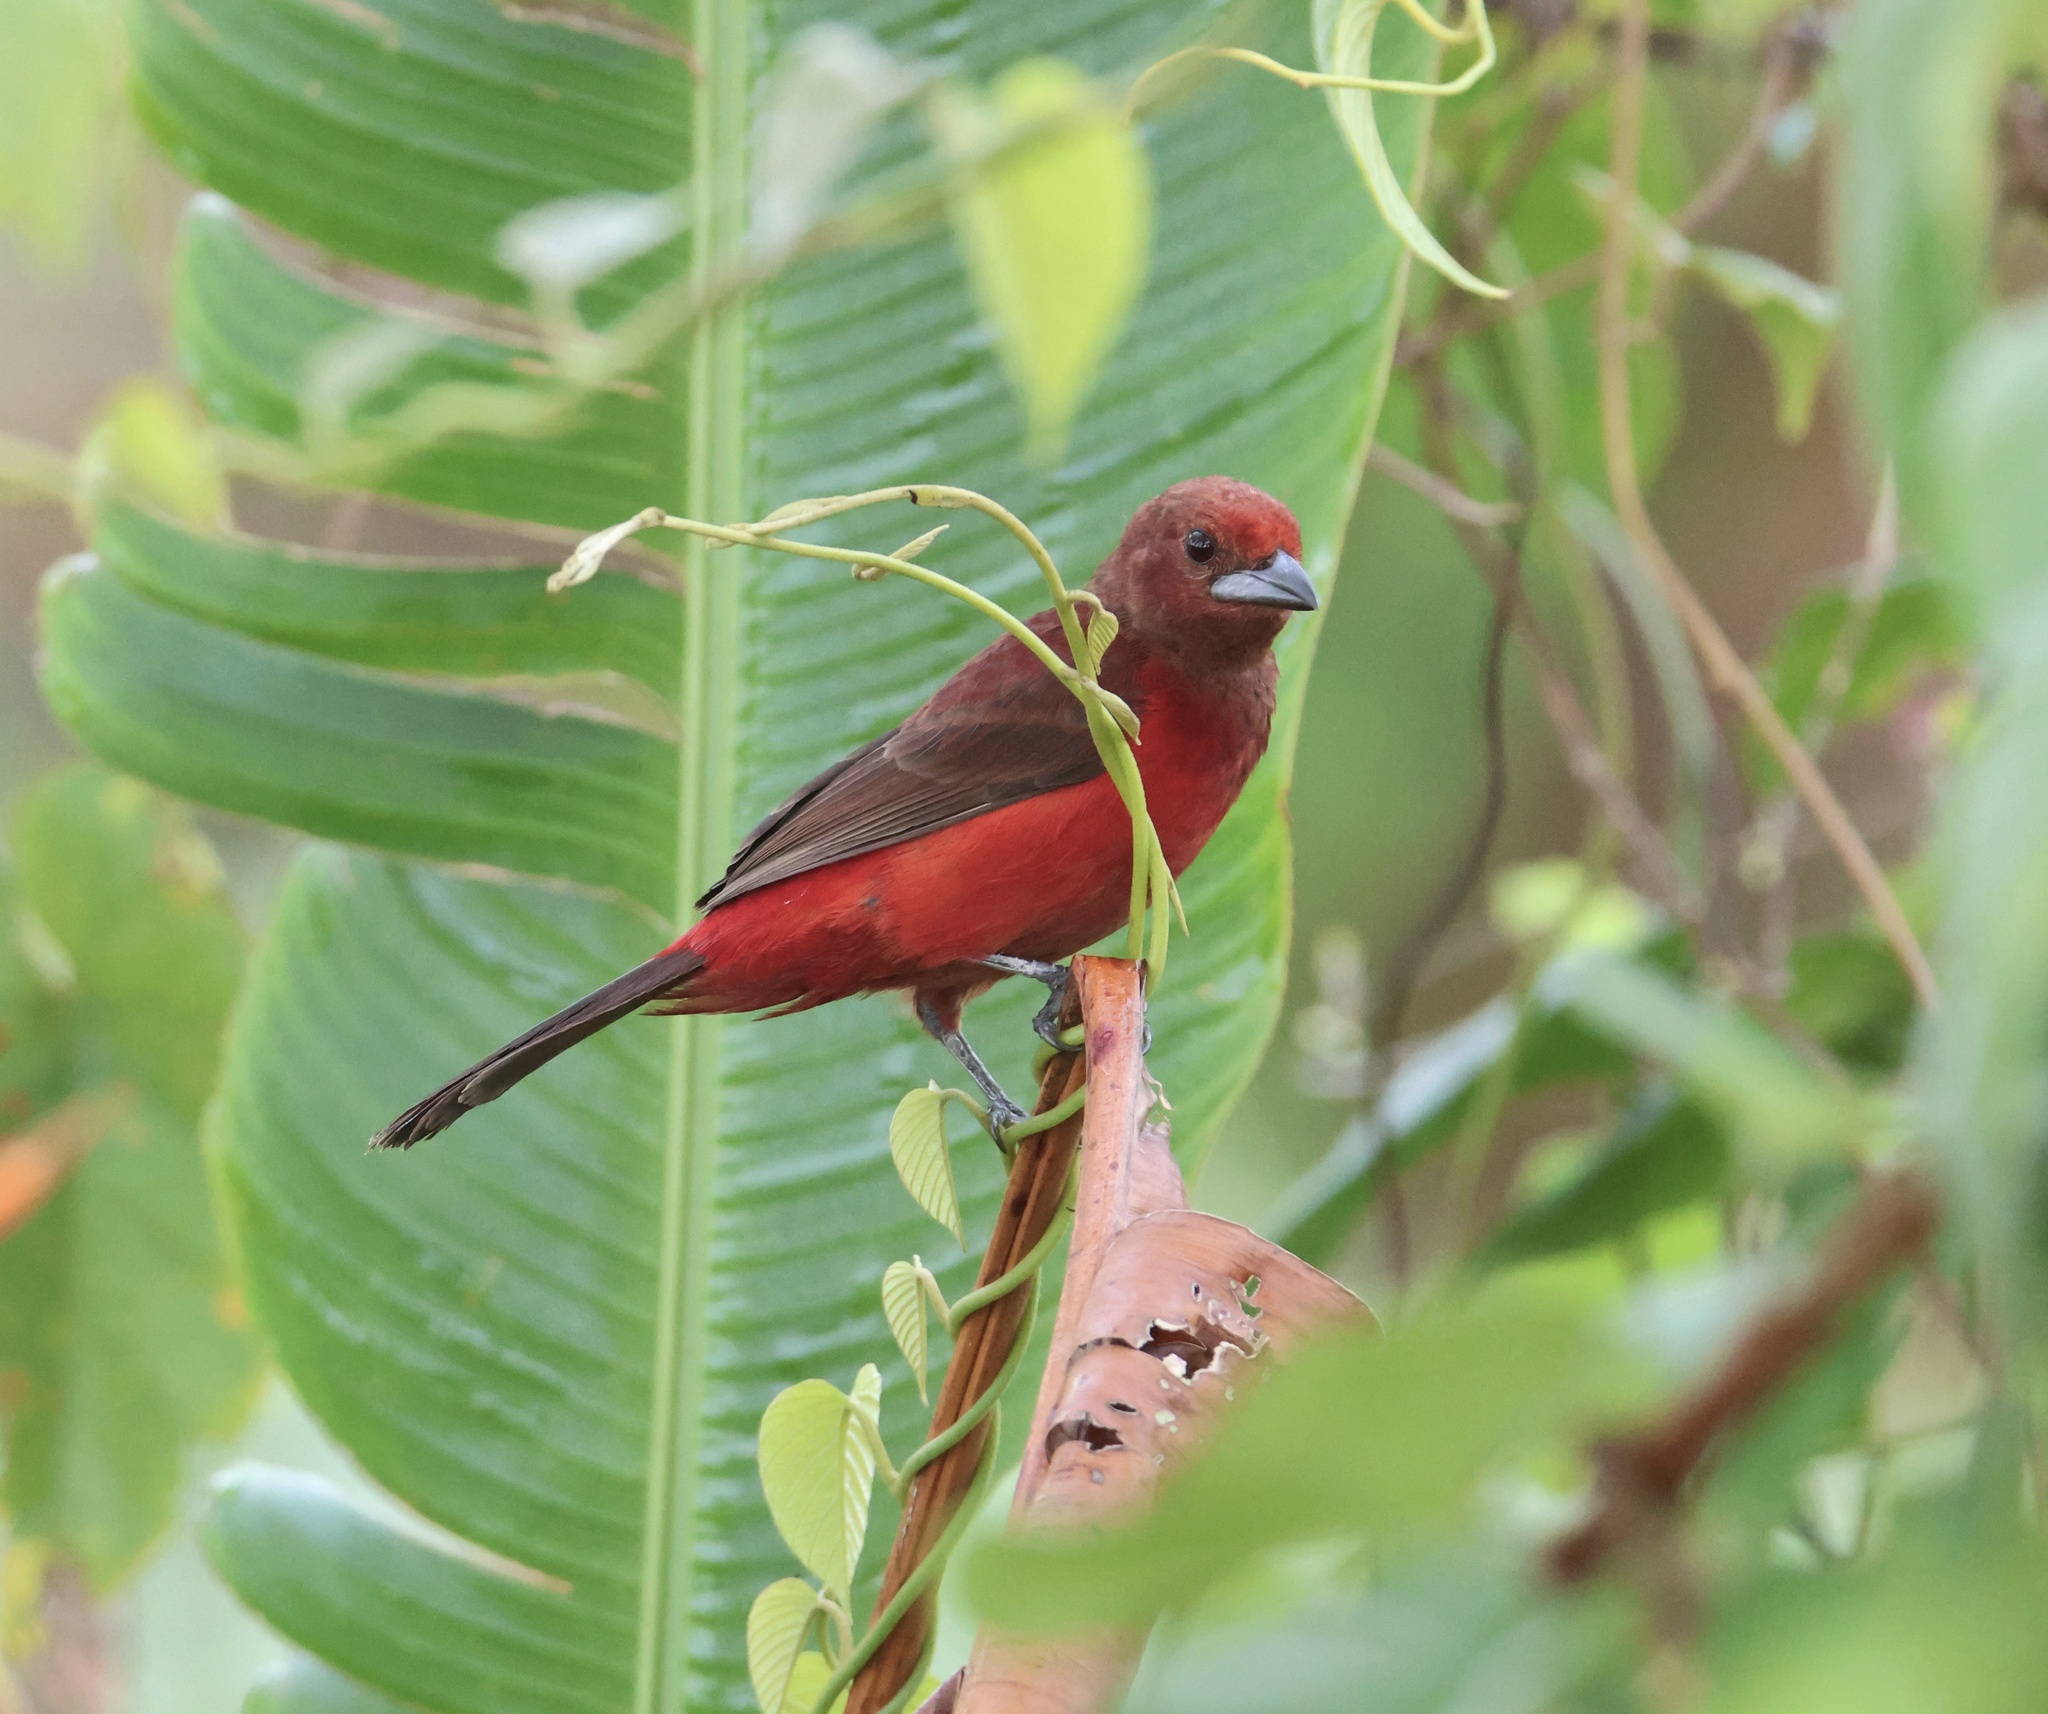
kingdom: Animalia
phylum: Chordata
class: Aves
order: Passeriformes
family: Thraupidae
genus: Ramphocelus
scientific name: Ramphocelus dimidiatus
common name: Crimson-backed tanager
